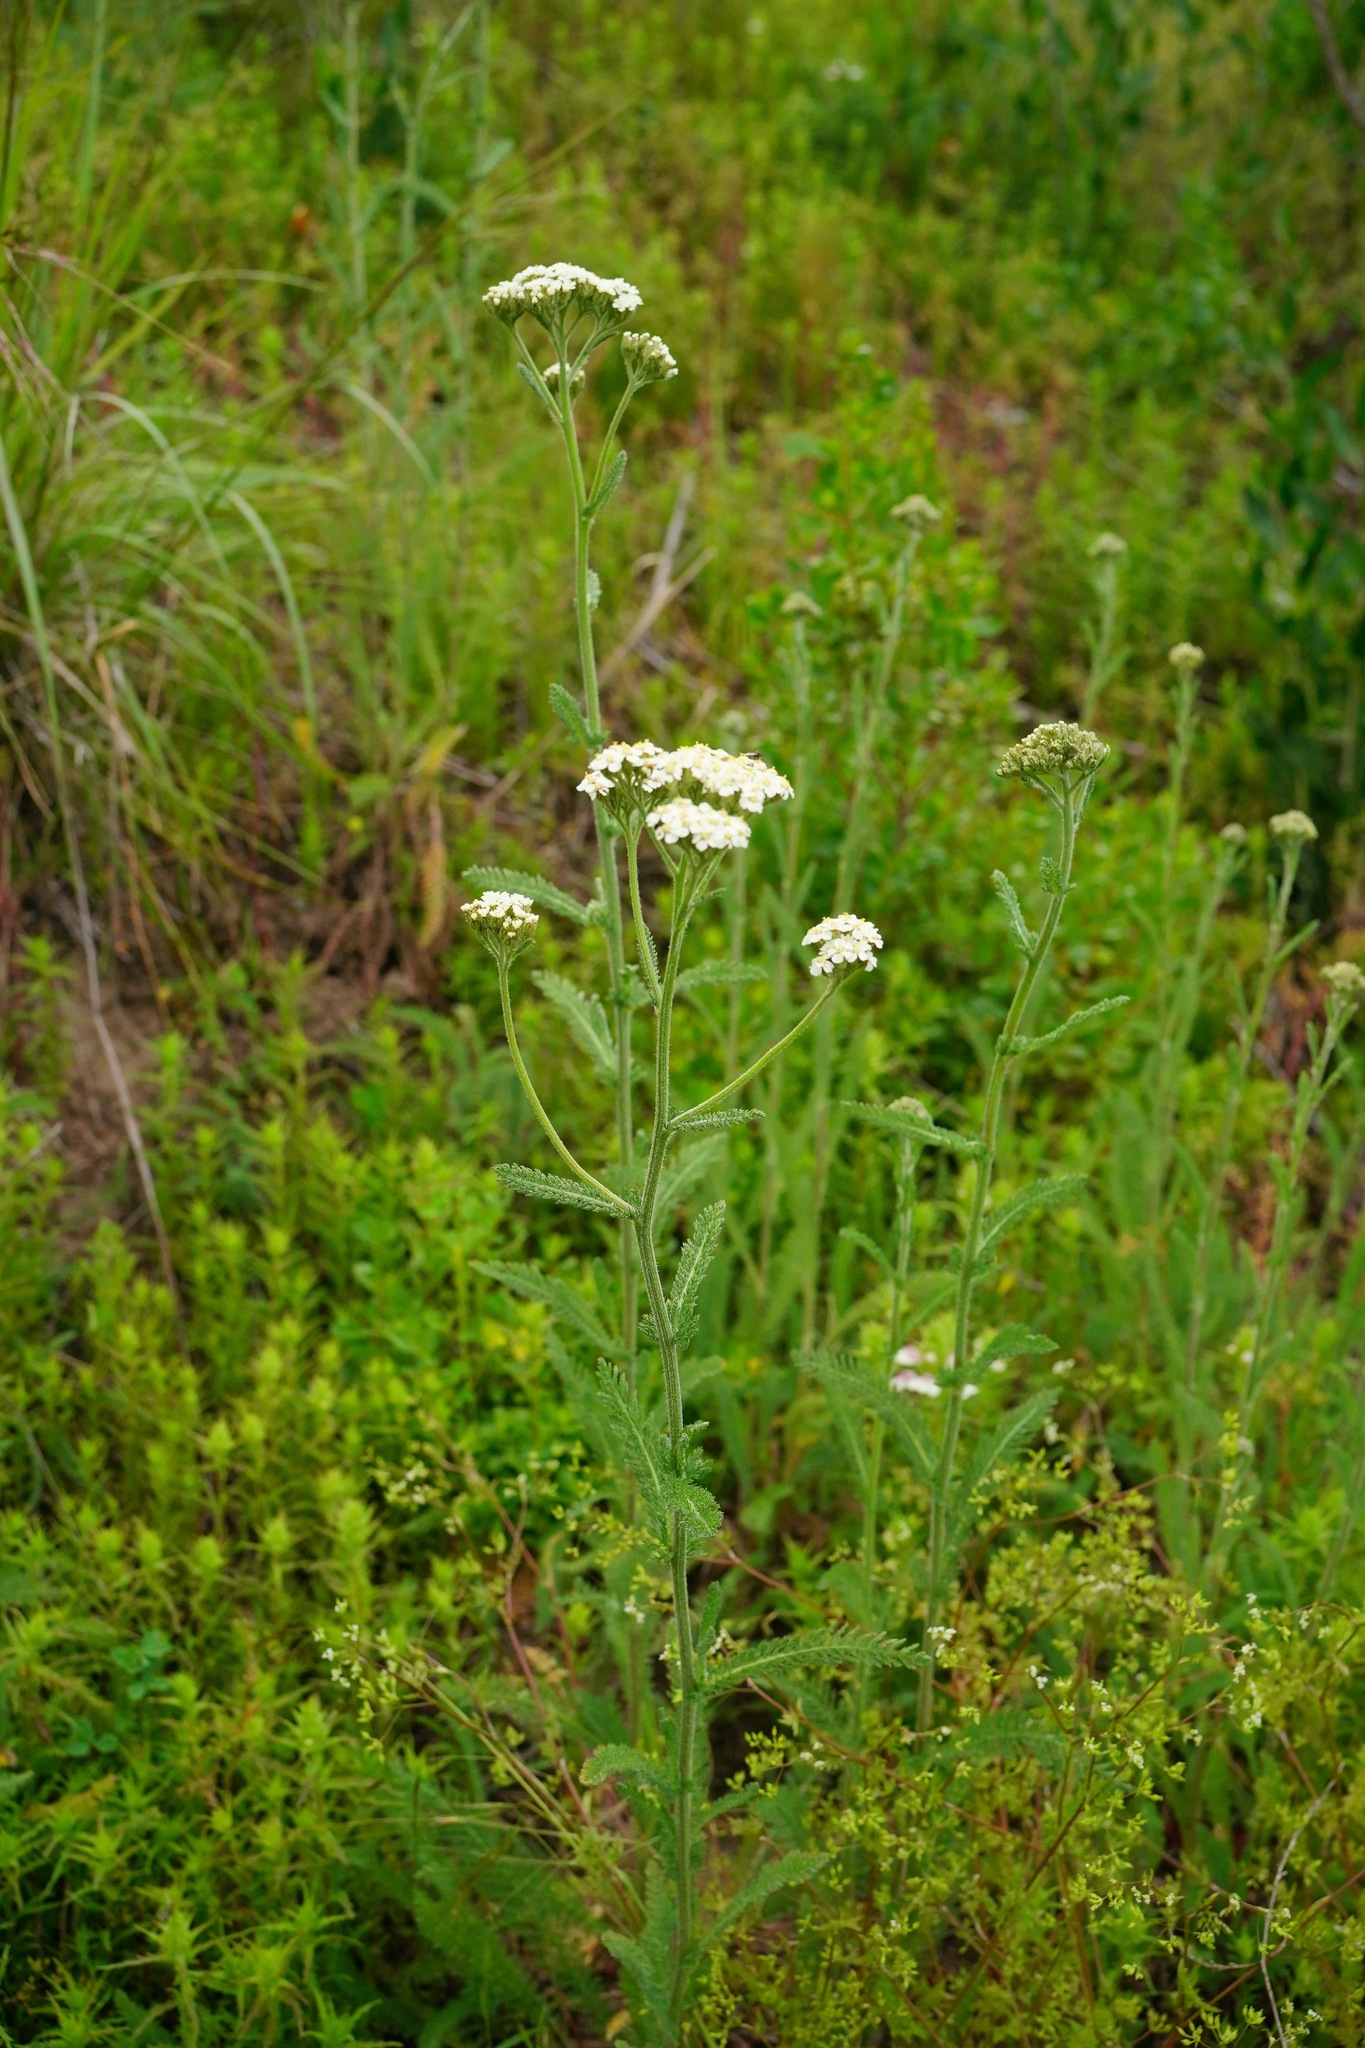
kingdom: Plantae
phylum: Tracheophyta
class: Magnoliopsida
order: Asterales
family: Asteraceae
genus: Achillea
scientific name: Achillea millefolium
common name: Yarrow
